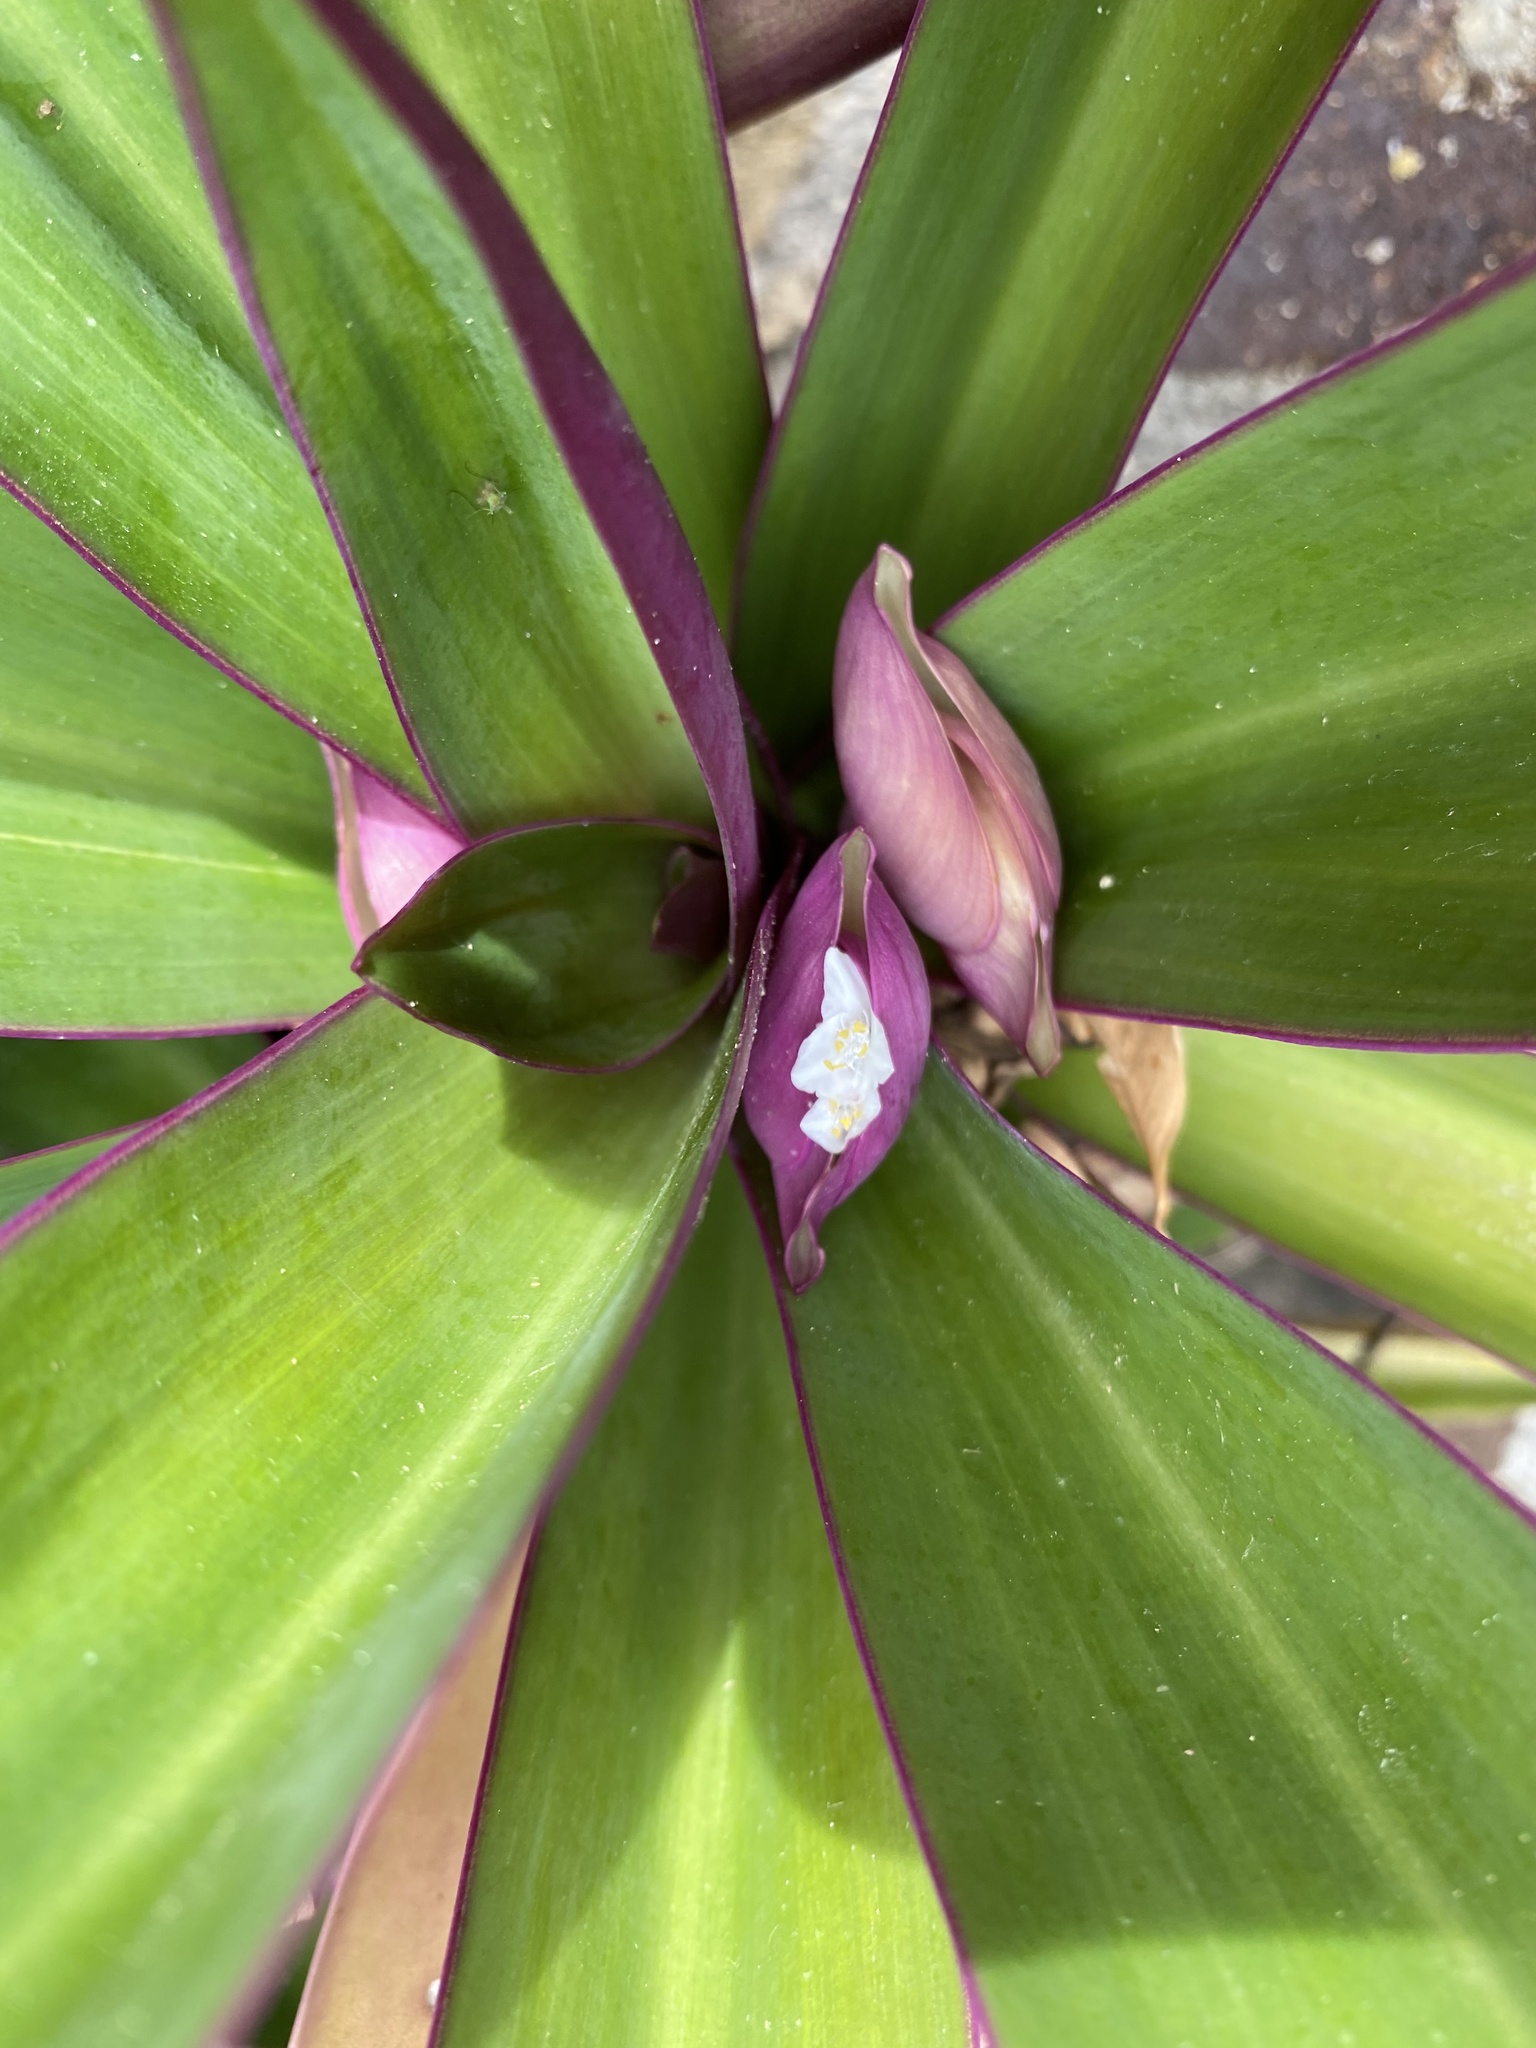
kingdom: Plantae
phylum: Tracheophyta
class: Liliopsida
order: Commelinales
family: Commelinaceae
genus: Tradescantia
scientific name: Tradescantia spathacea
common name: Boatlily
